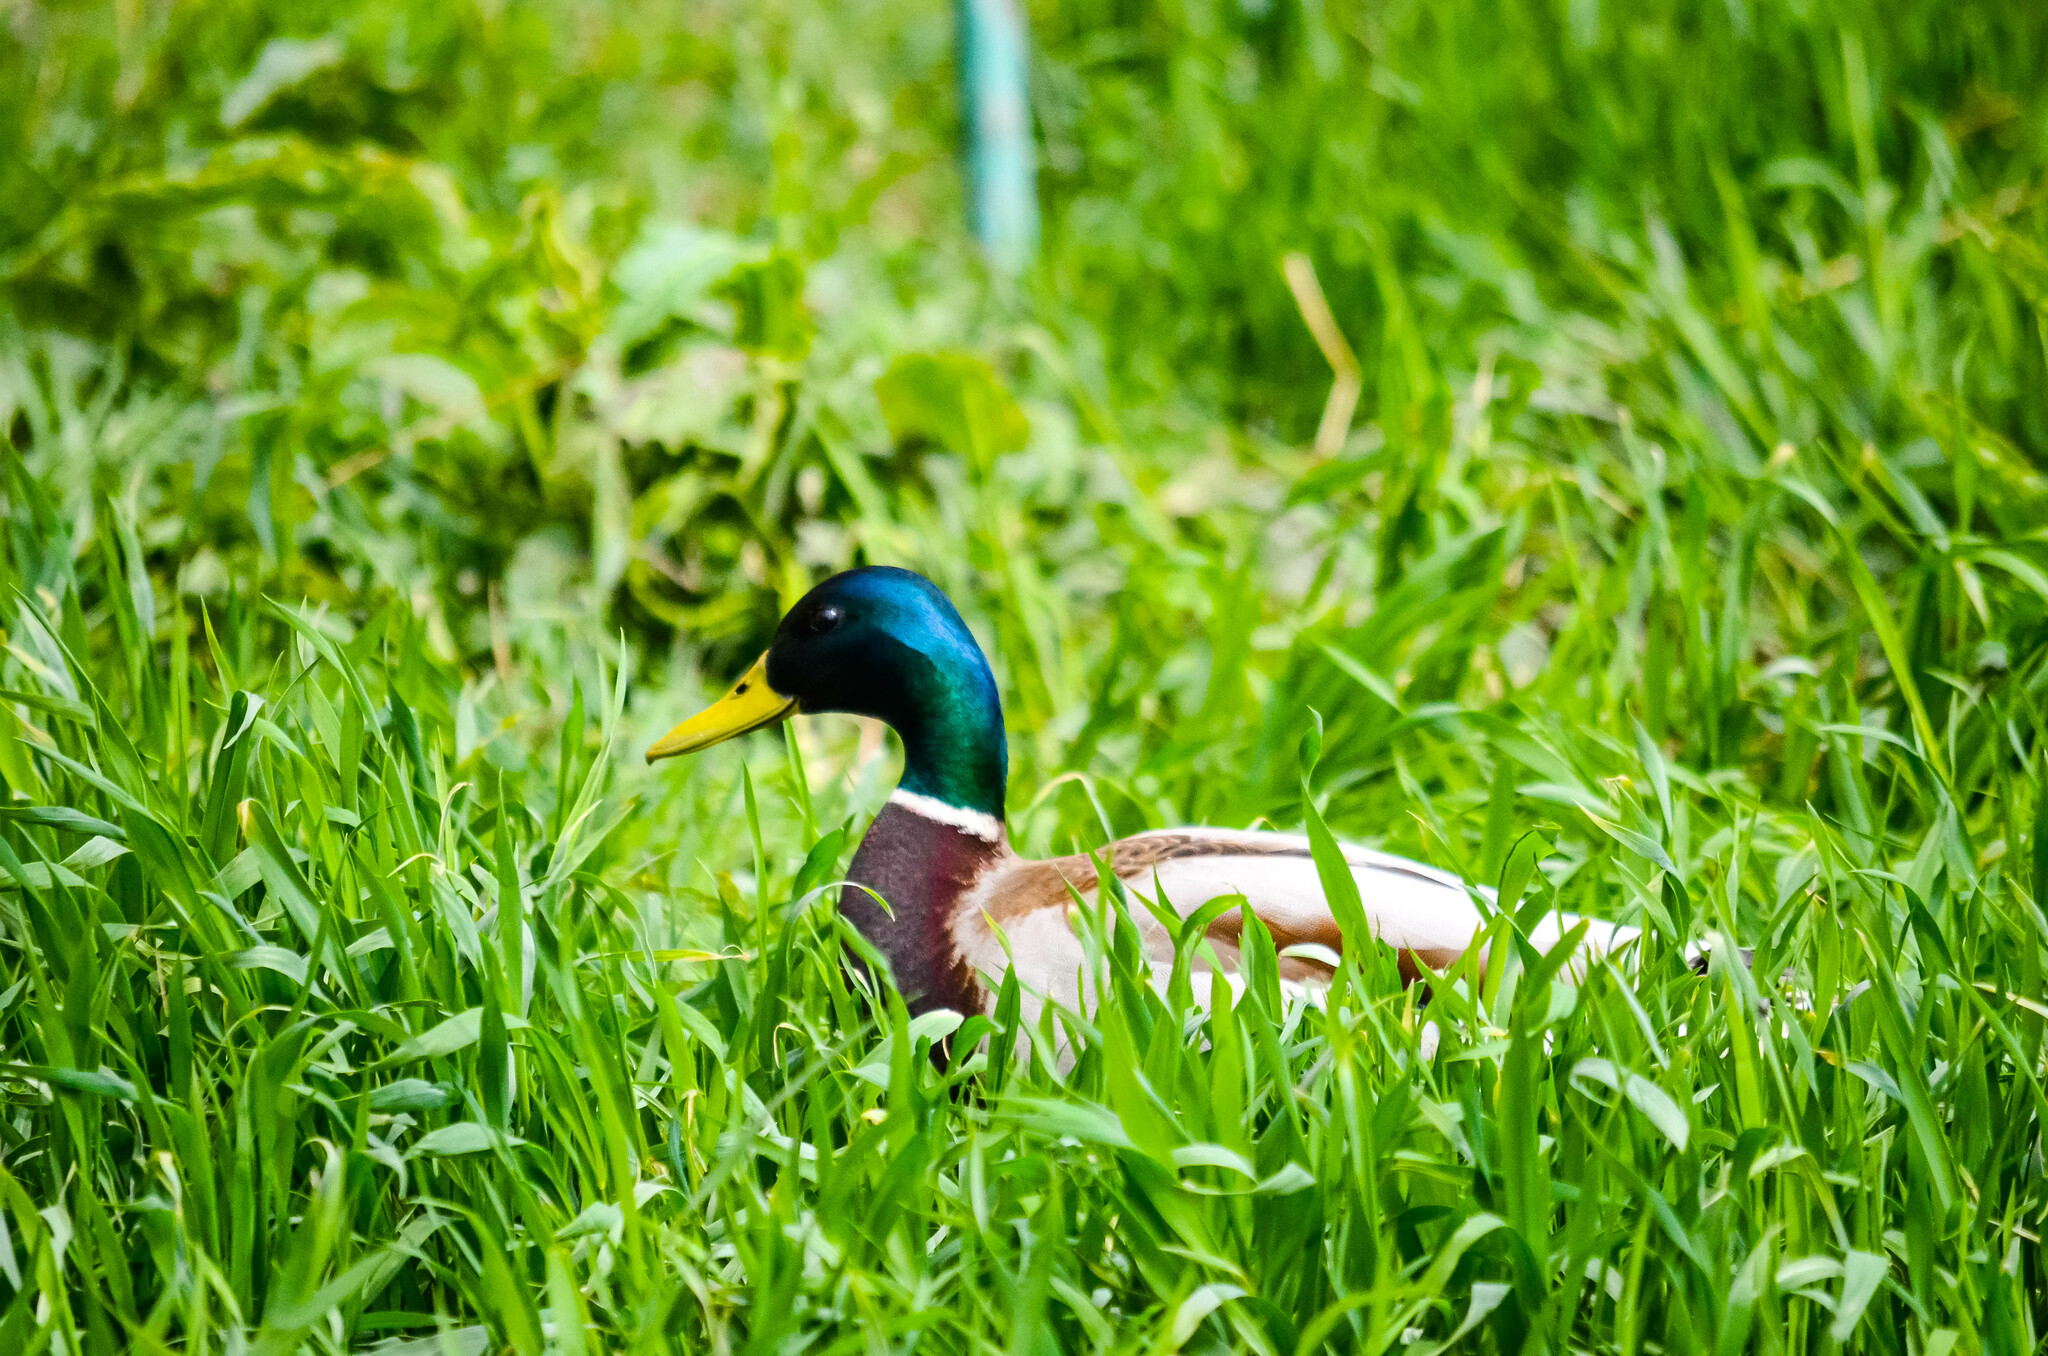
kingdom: Animalia
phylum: Chordata
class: Aves
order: Anseriformes
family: Anatidae
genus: Anas
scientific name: Anas platyrhynchos
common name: Mallard
